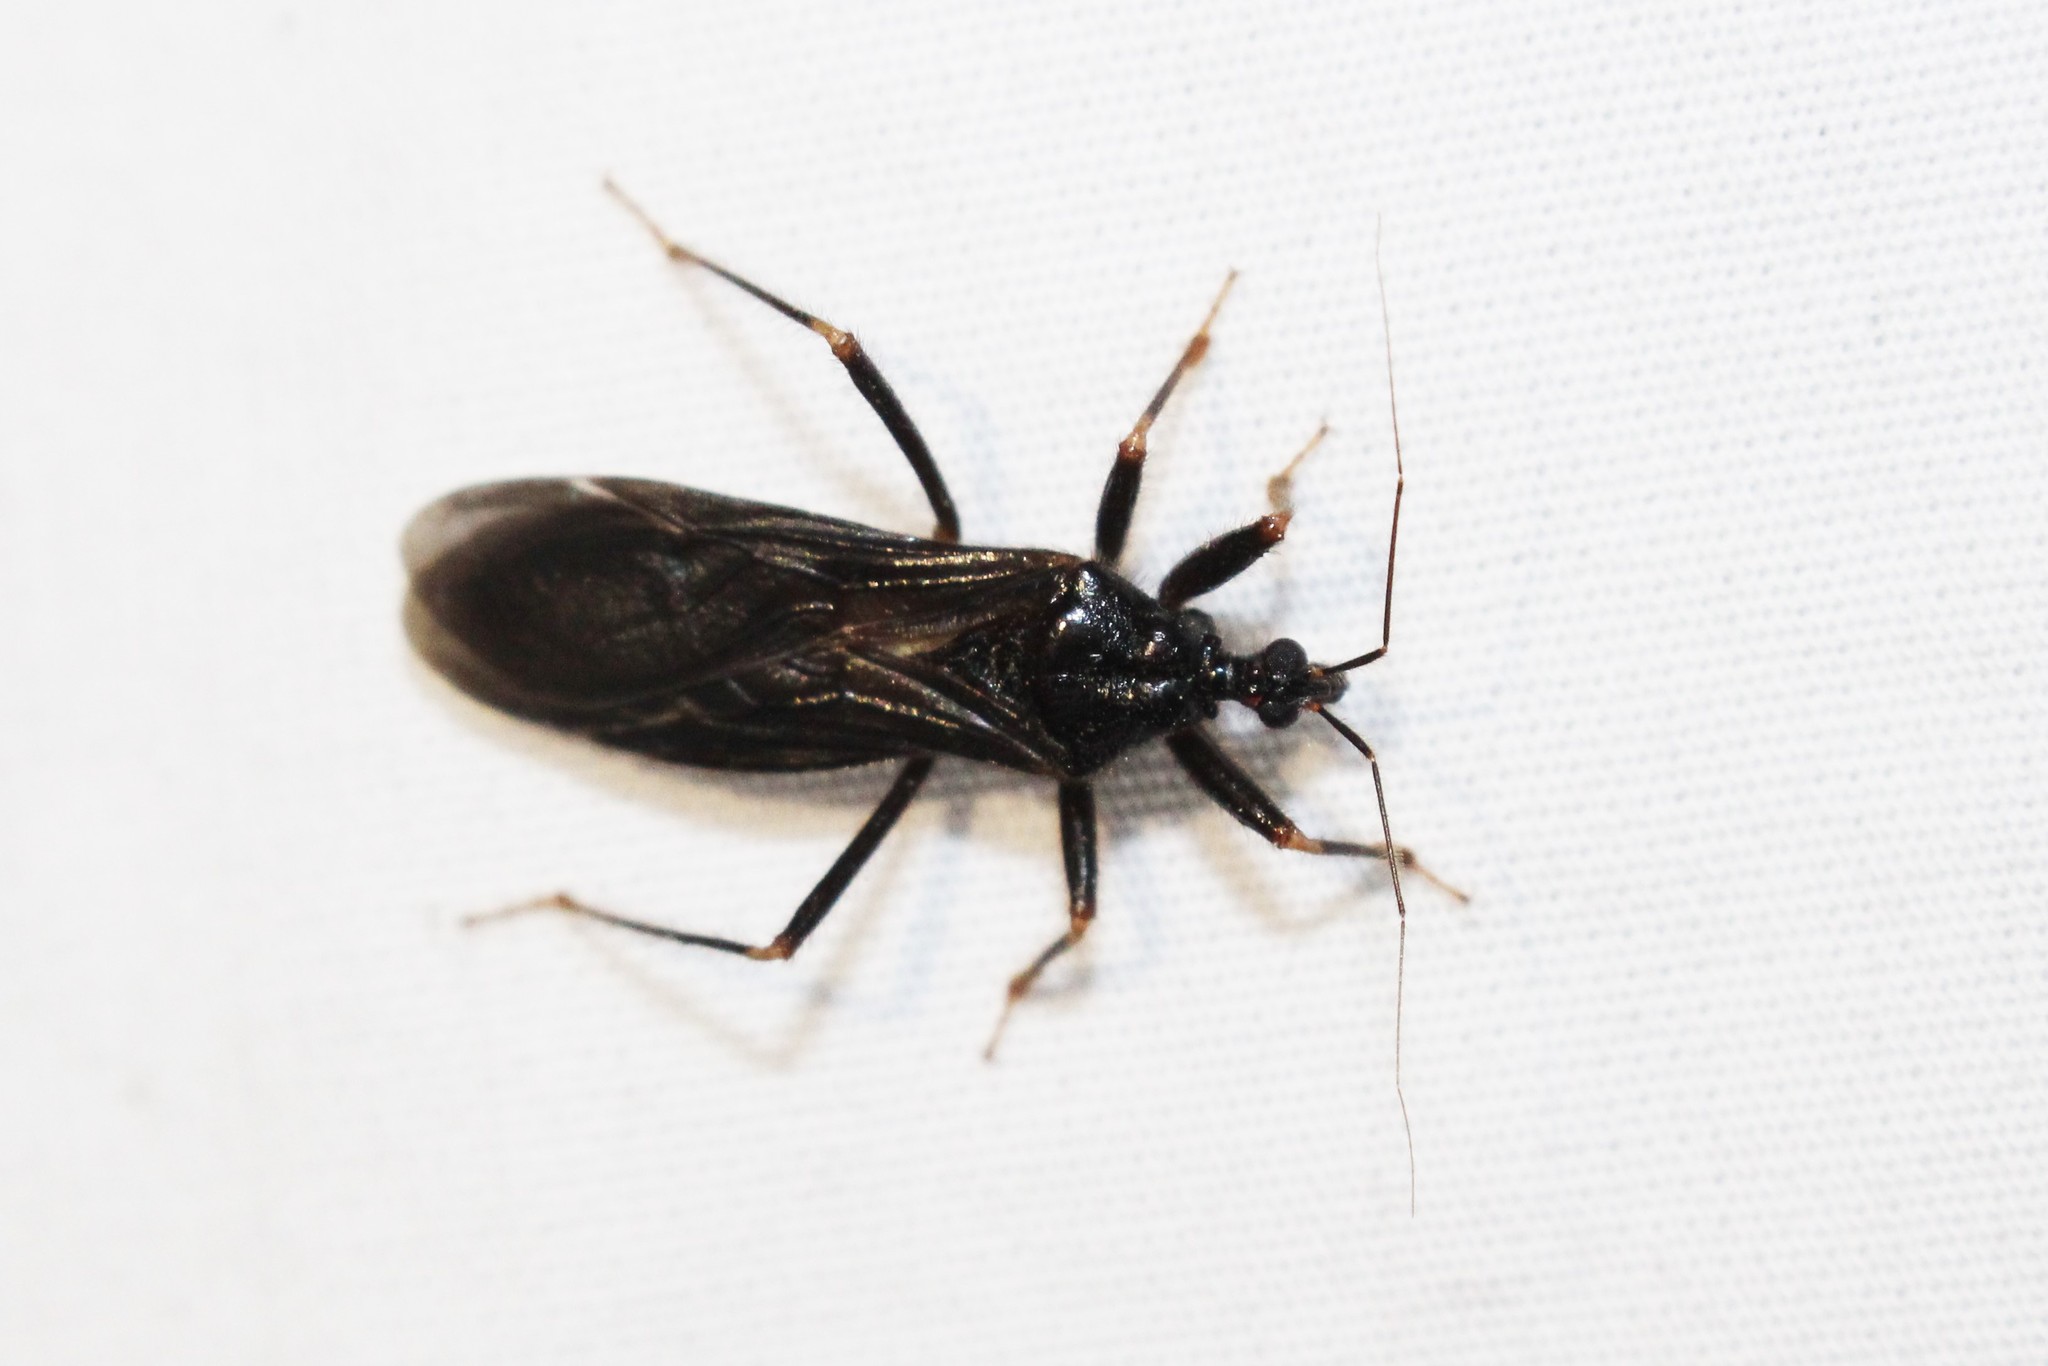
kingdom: Animalia
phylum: Arthropoda
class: Insecta
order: Hemiptera
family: Reduviidae
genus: Reduvius
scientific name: Reduvius personatus
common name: Masked hunter
